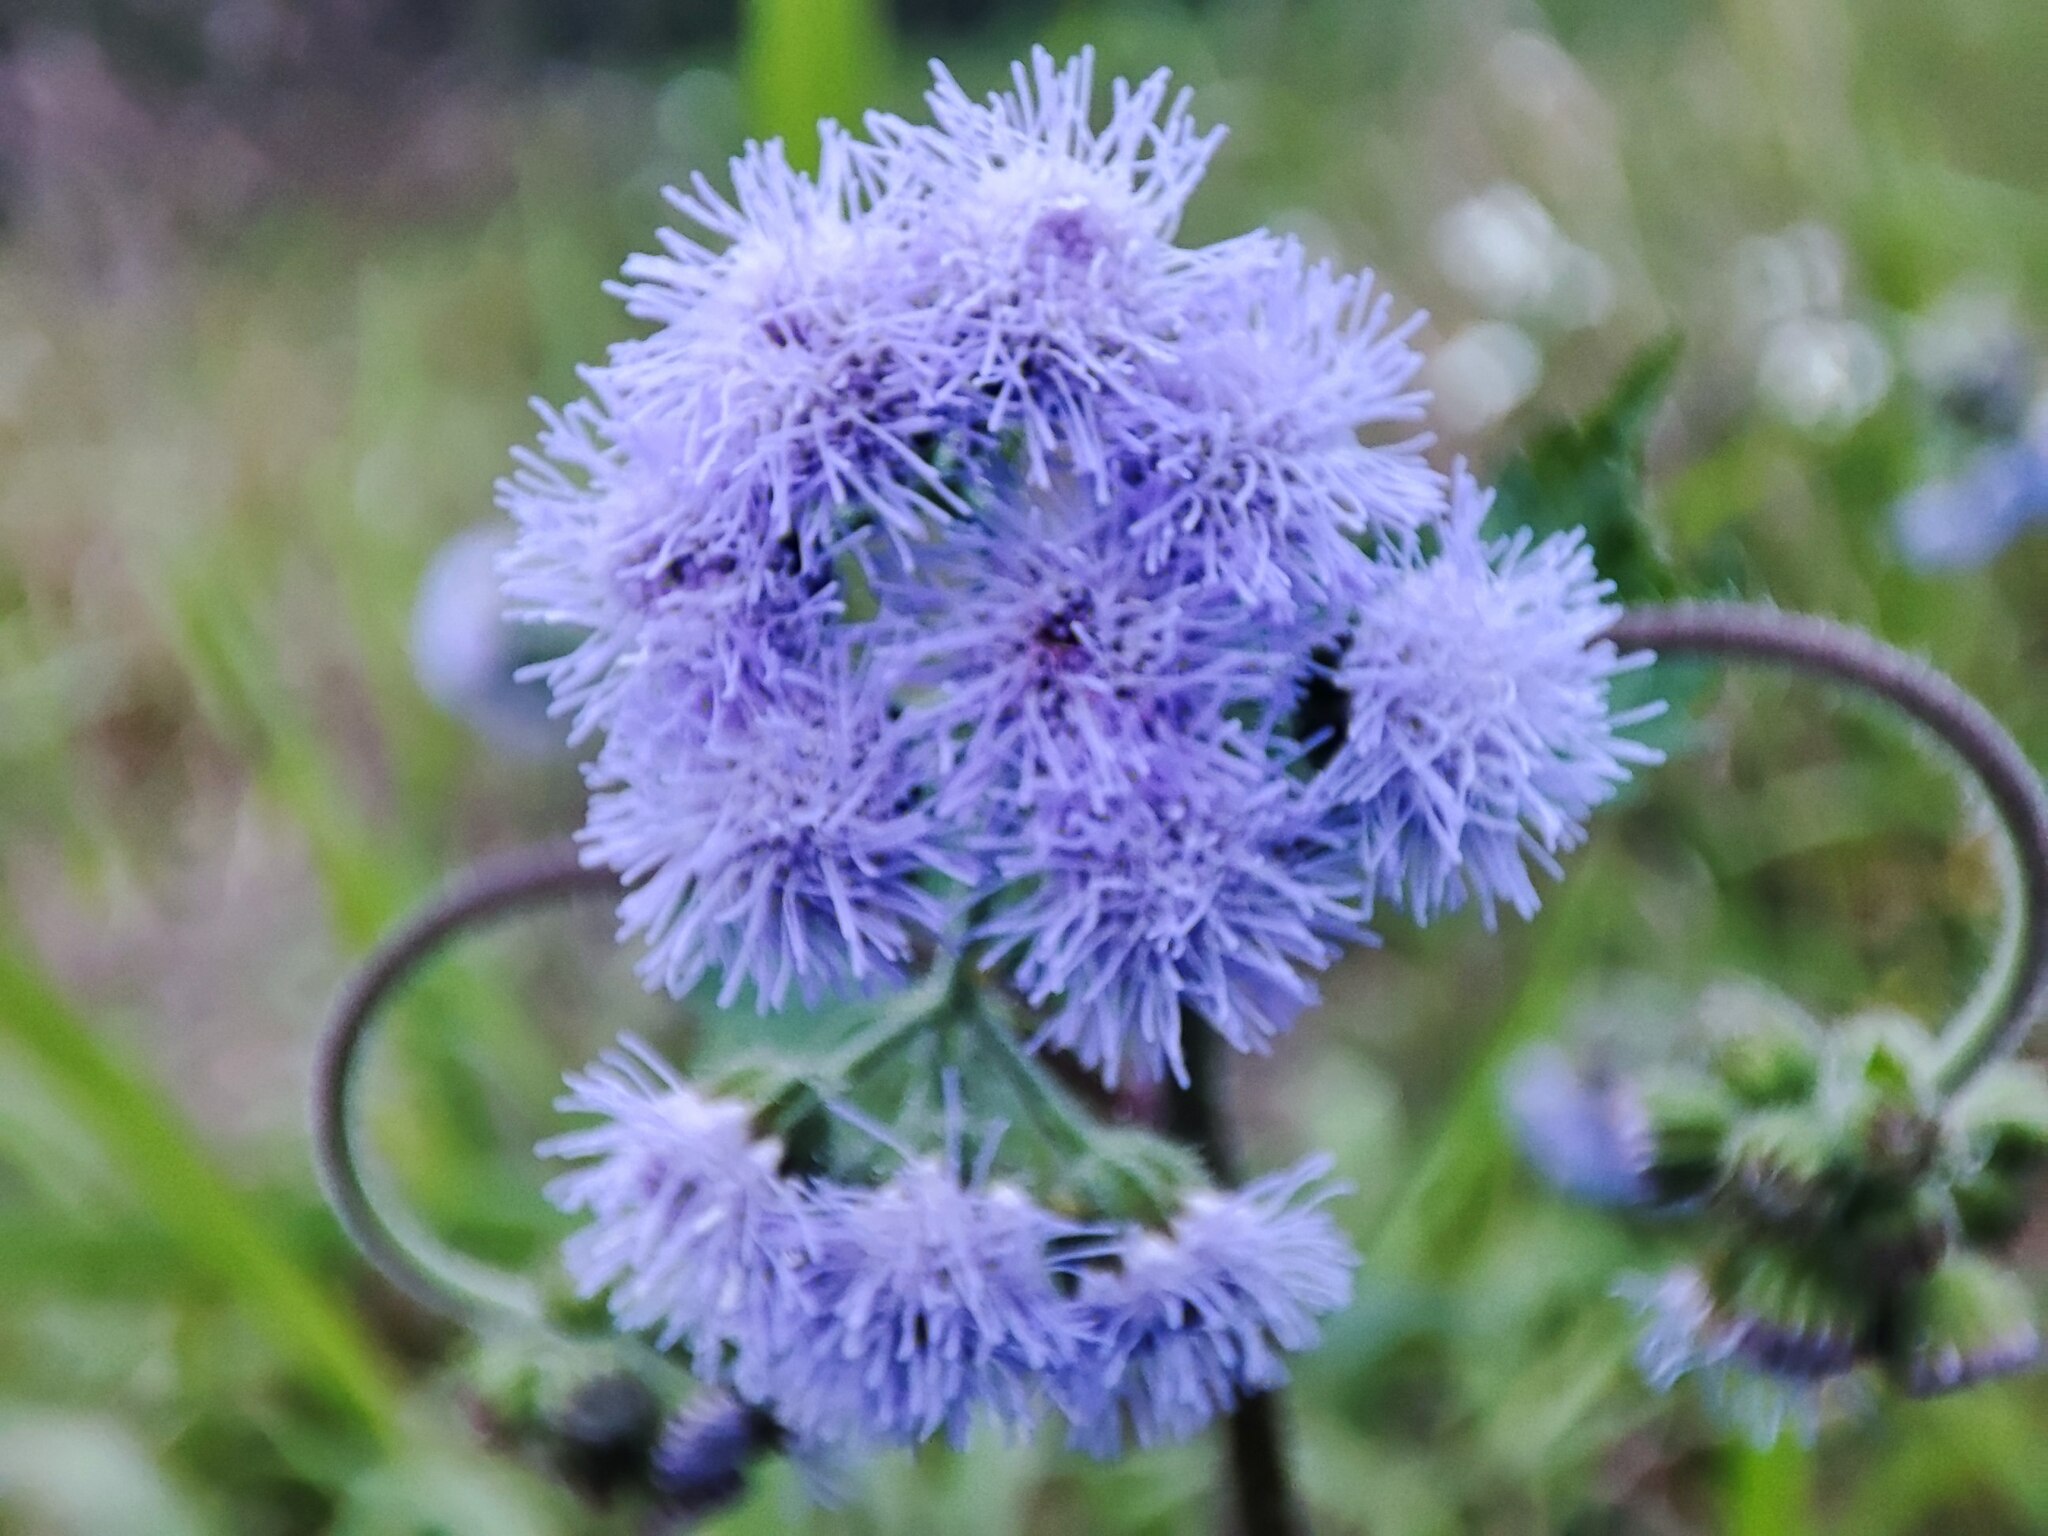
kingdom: Plantae
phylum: Tracheophyta
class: Magnoliopsida
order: Asterales
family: Asteraceae
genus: Ageratum
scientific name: Ageratum houstonianum
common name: Bluemink
